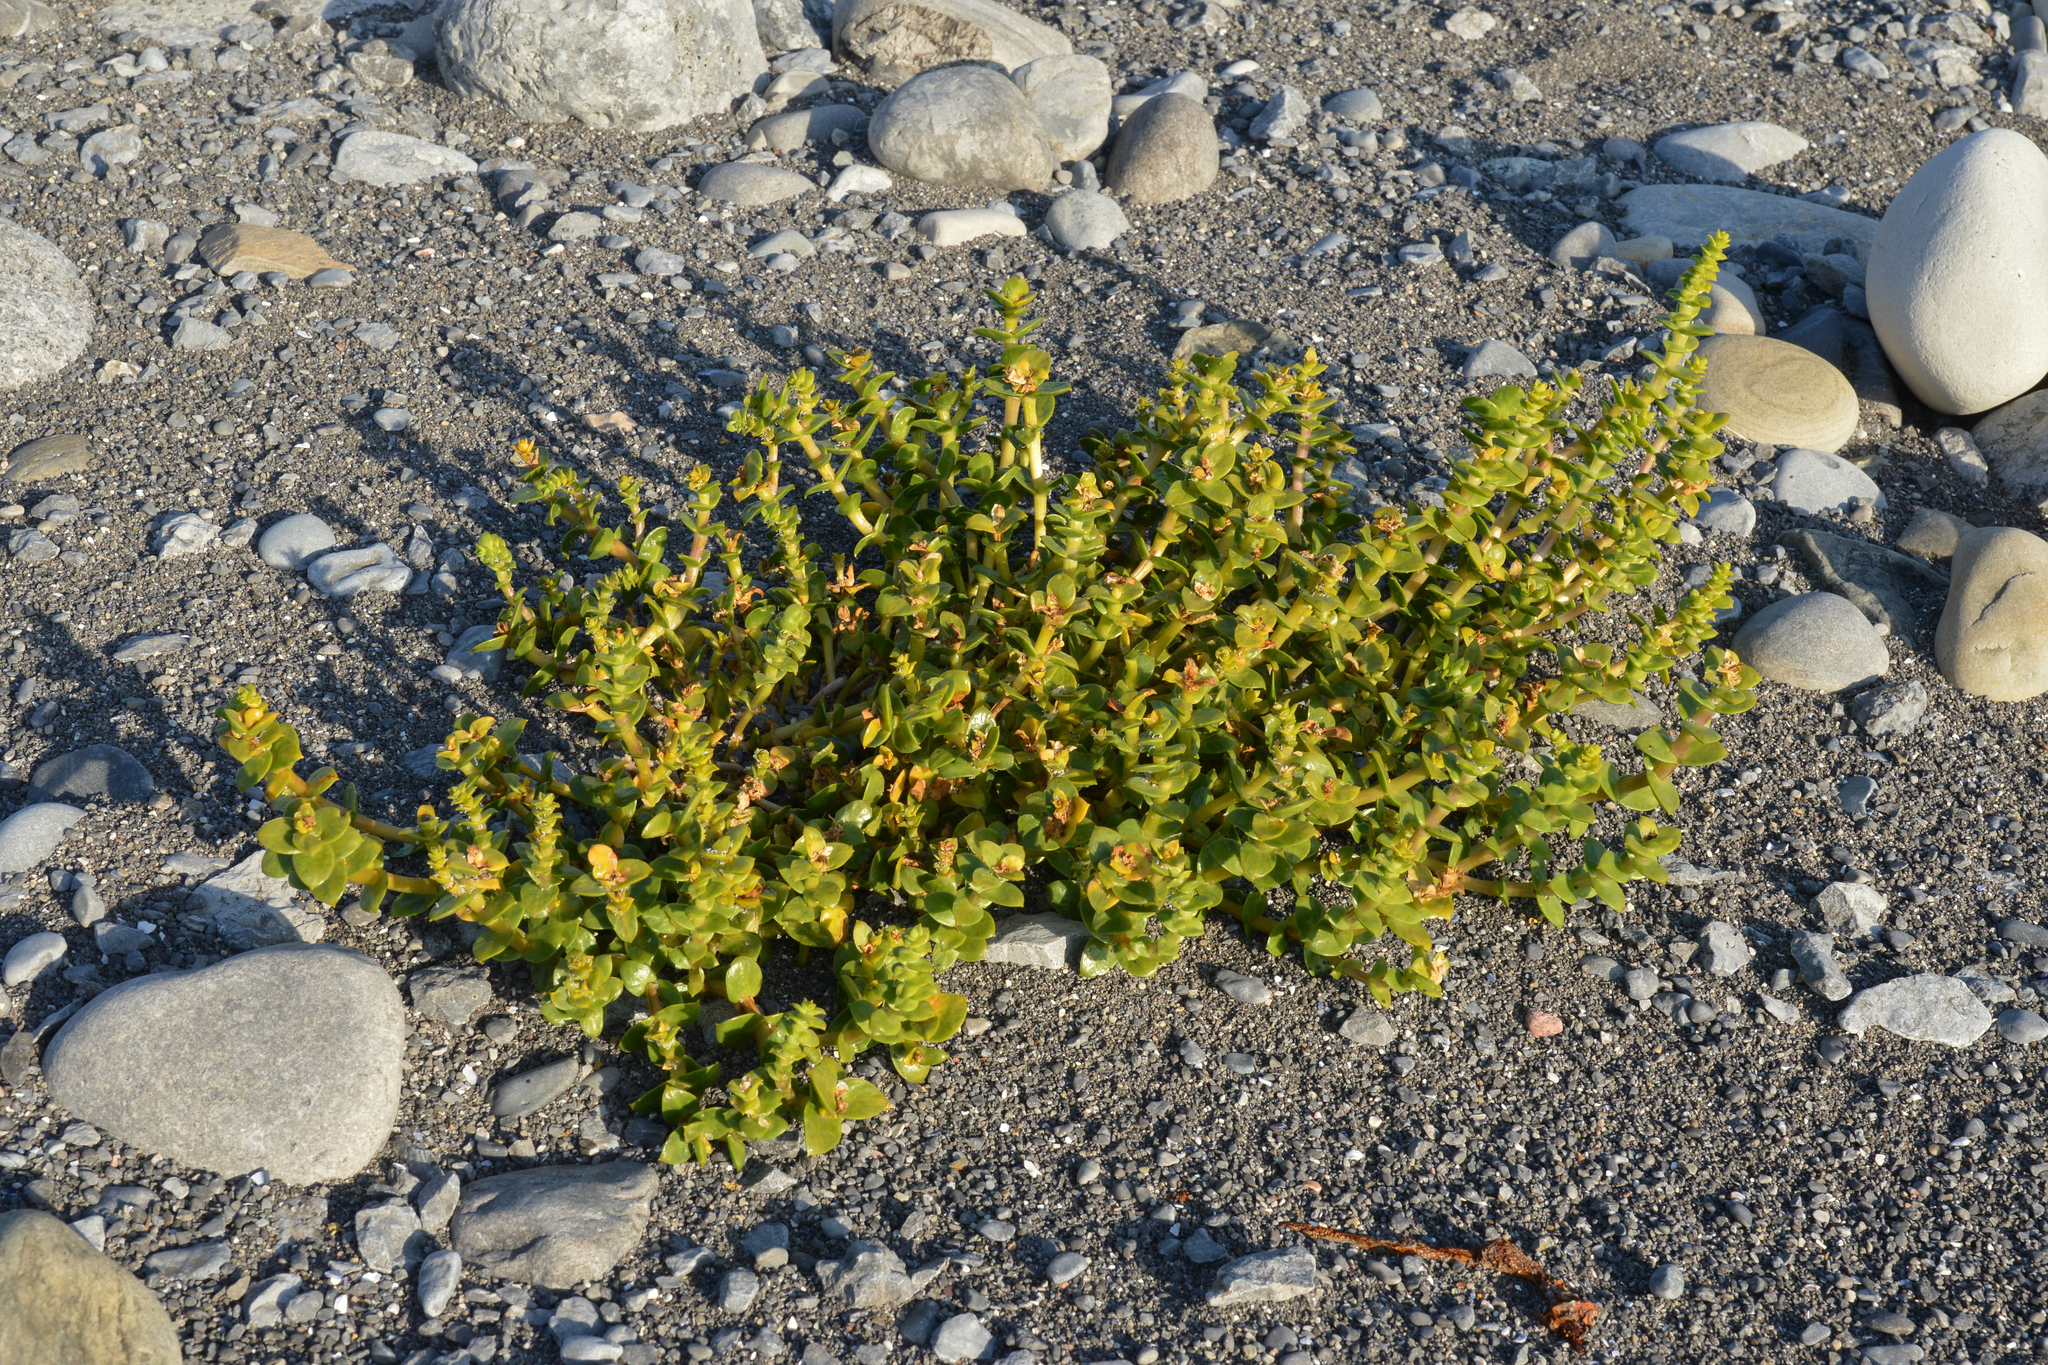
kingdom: Plantae
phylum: Tracheophyta
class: Magnoliopsida
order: Caryophyllales
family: Caryophyllaceae
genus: Honckenya
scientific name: Honckenya peploides
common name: Sea sandwort
